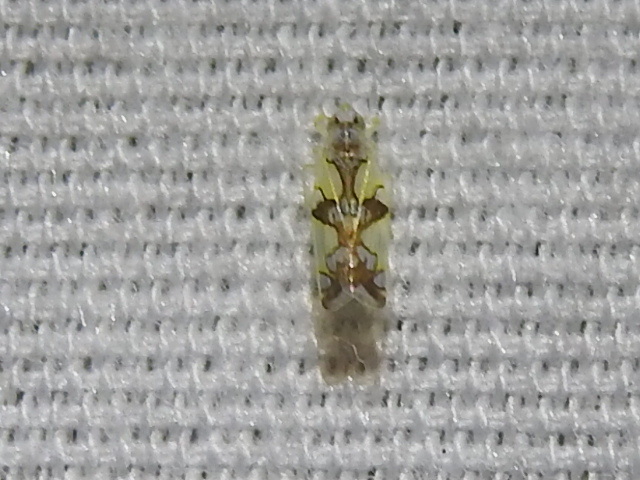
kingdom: Animalia
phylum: Arthropoda
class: Insecta
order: Hemiptera
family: Cicadellidae
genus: Protalebrella
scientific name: Protalebrella conica
